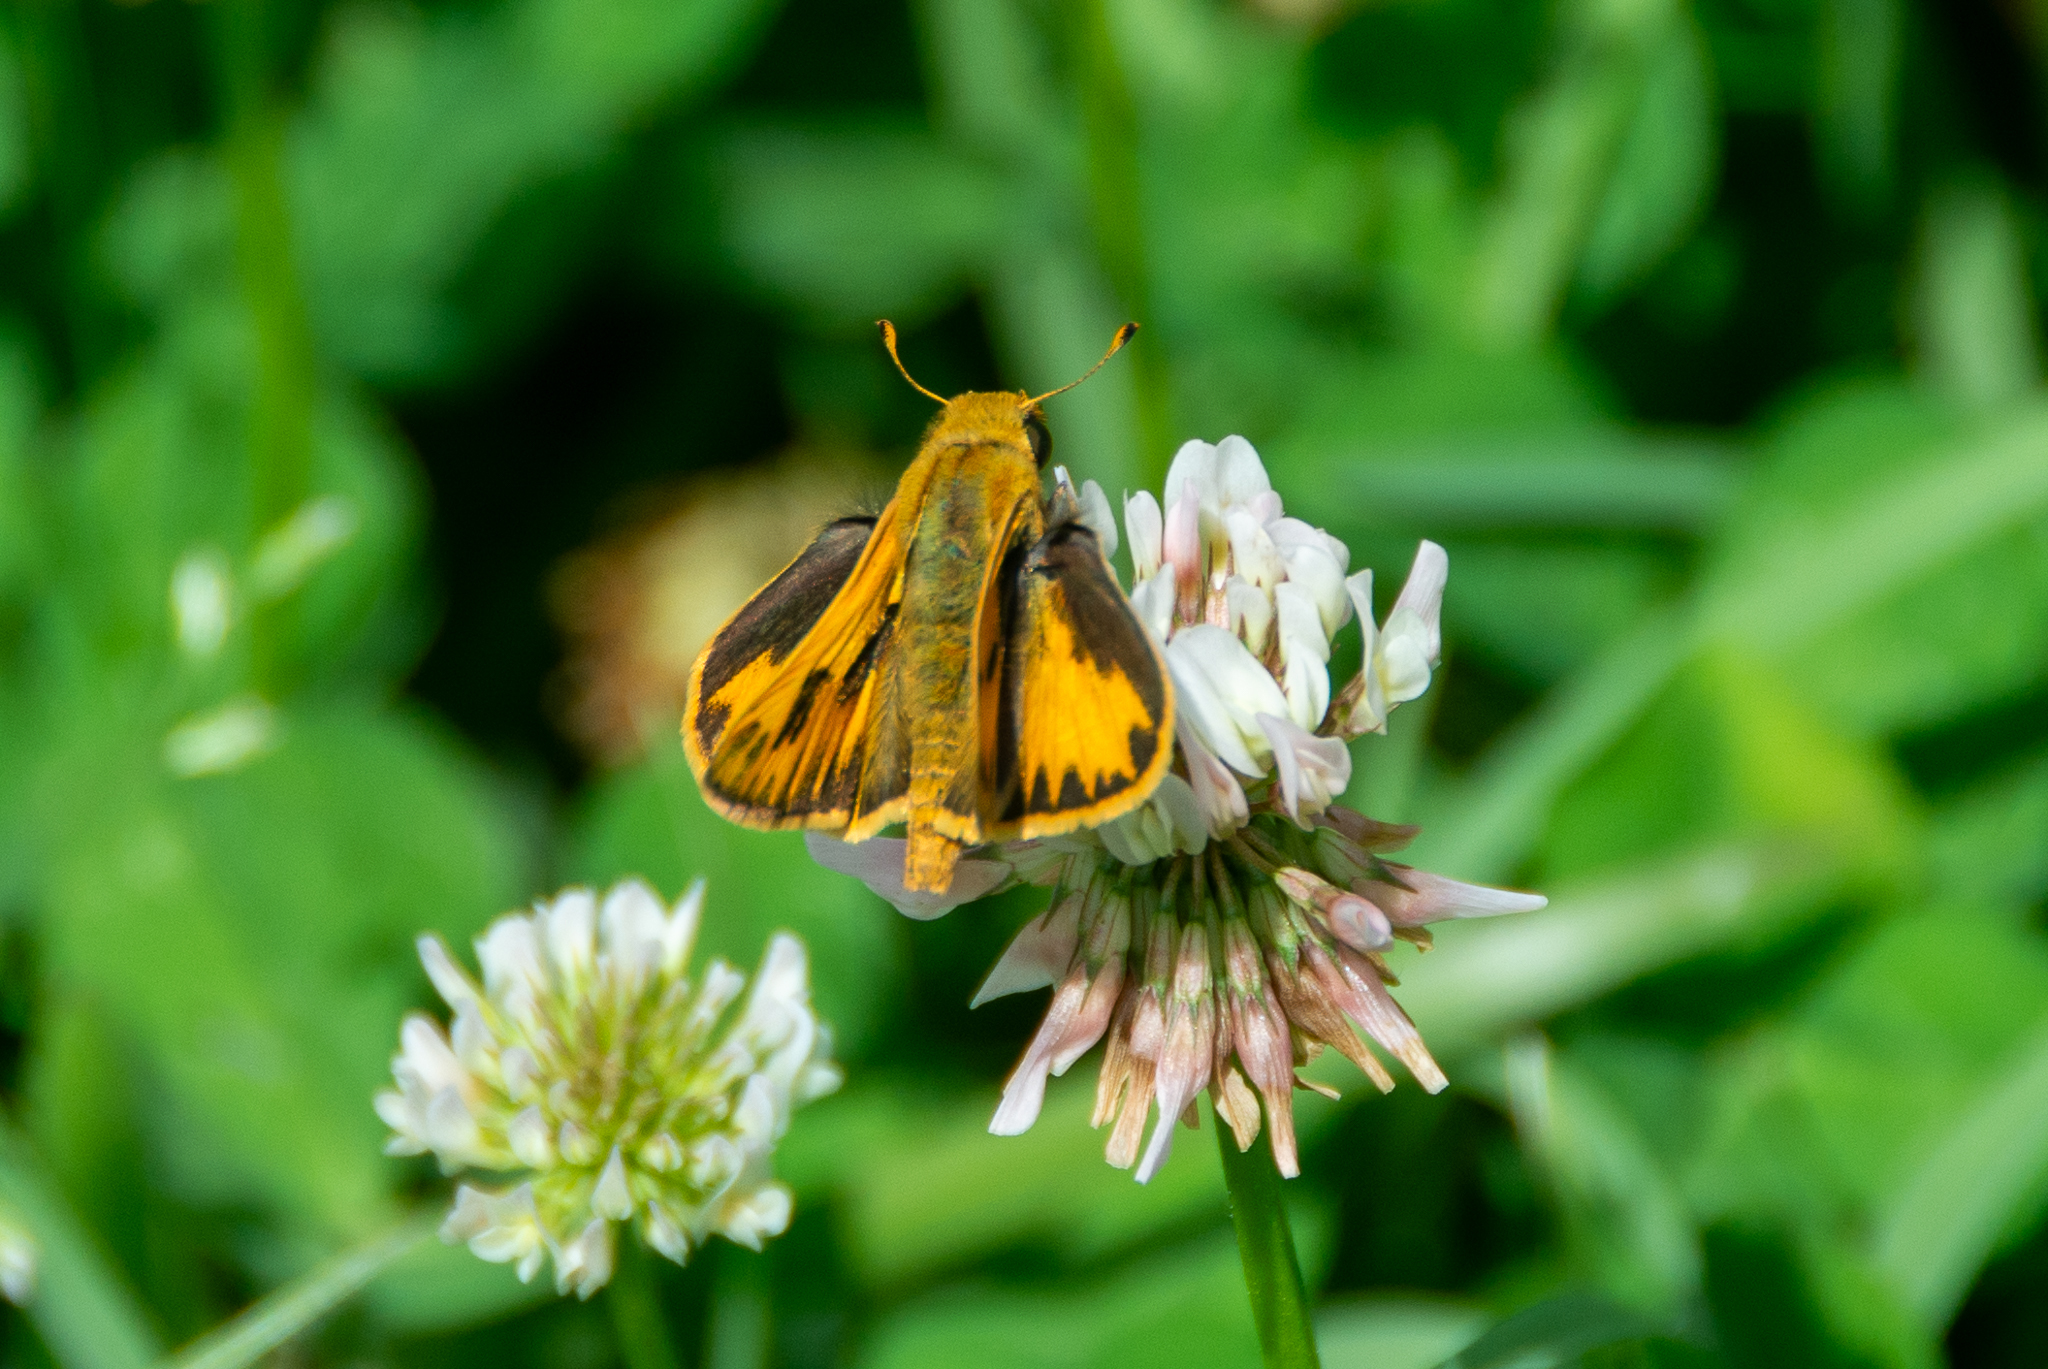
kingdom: Animalia
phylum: Arthropoda
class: Insecta
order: Lepidoptera
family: Hesperiidae
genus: Hylephila
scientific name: Hylephila phyleus
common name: Fiery skipper
